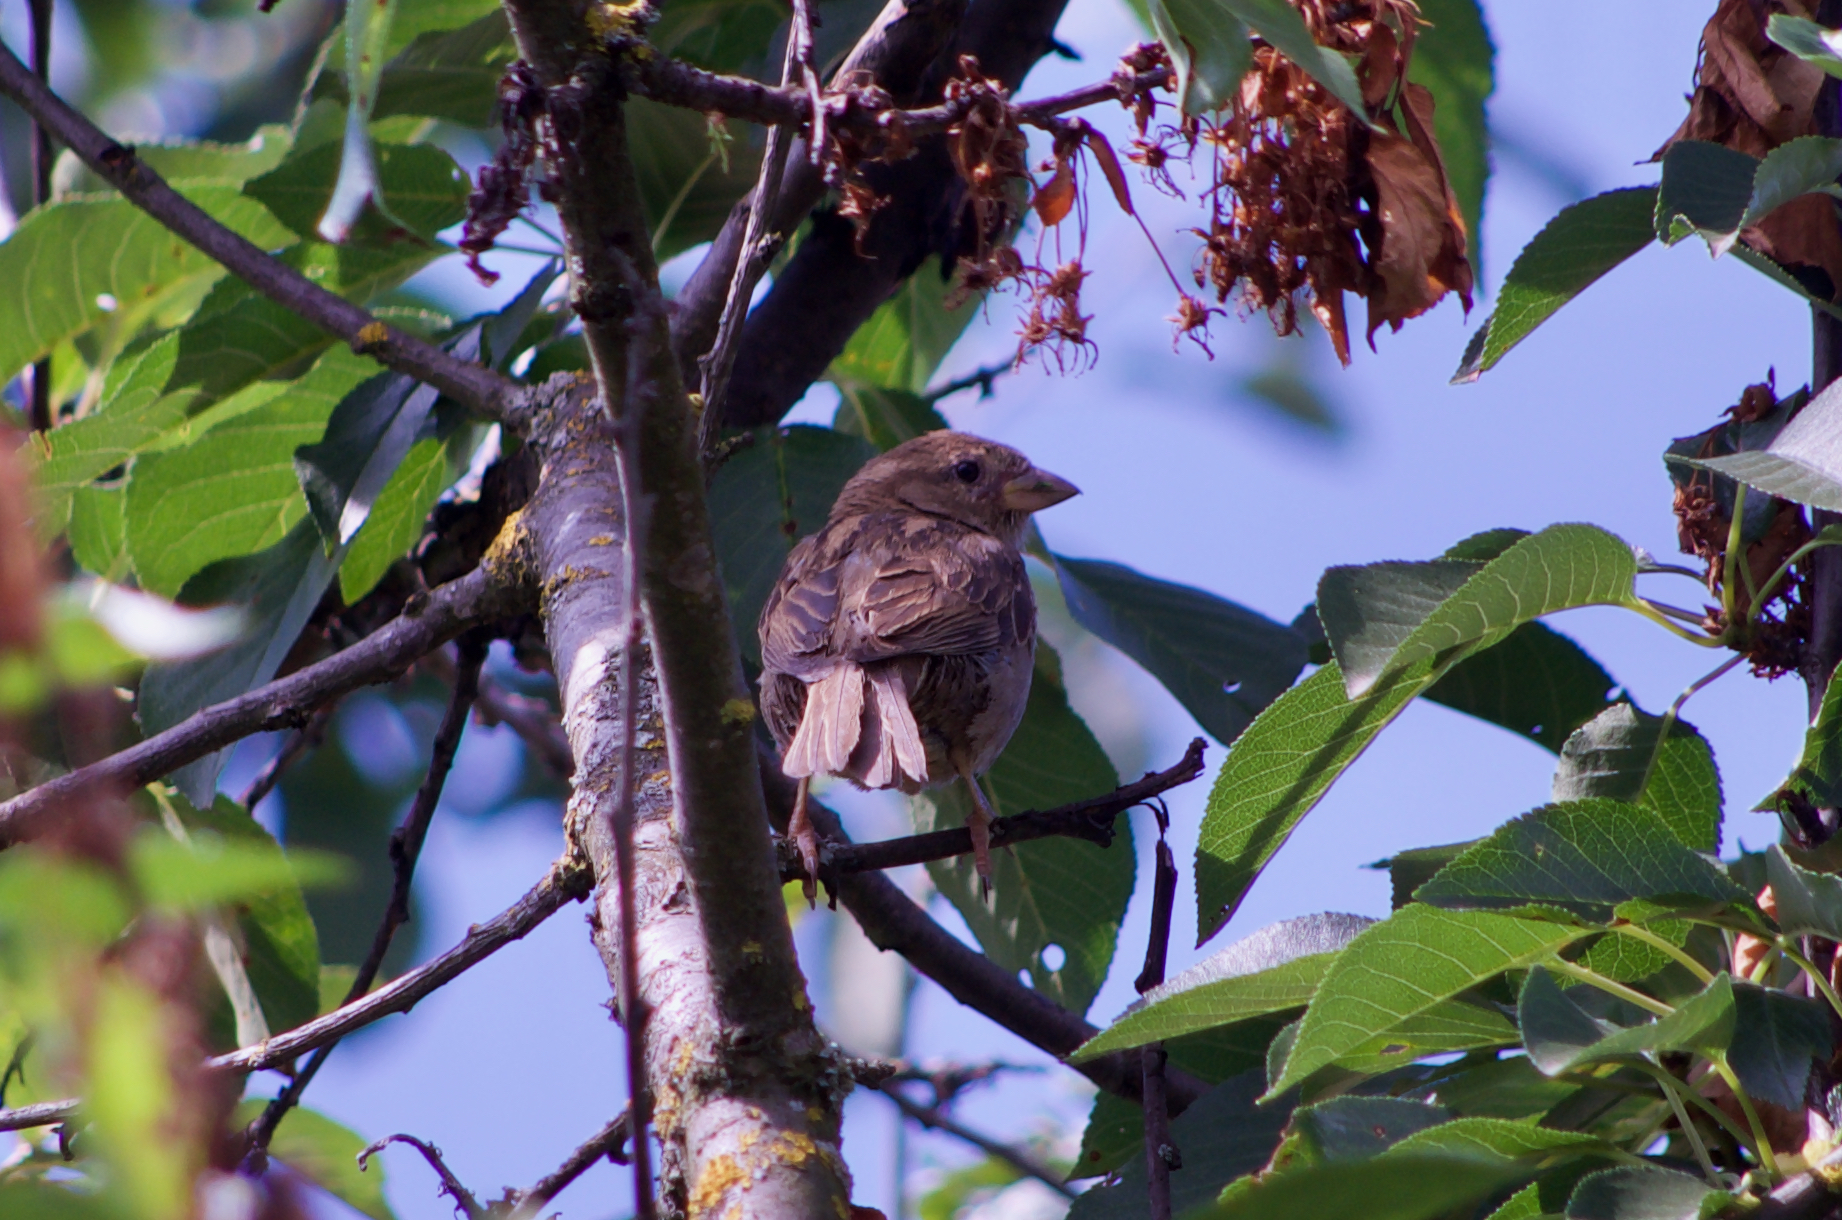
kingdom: Animalia
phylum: Chordata
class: Aves
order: Passeriformes
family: Passeridae
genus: Passer
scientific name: Passer domesticus
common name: House sparrow
